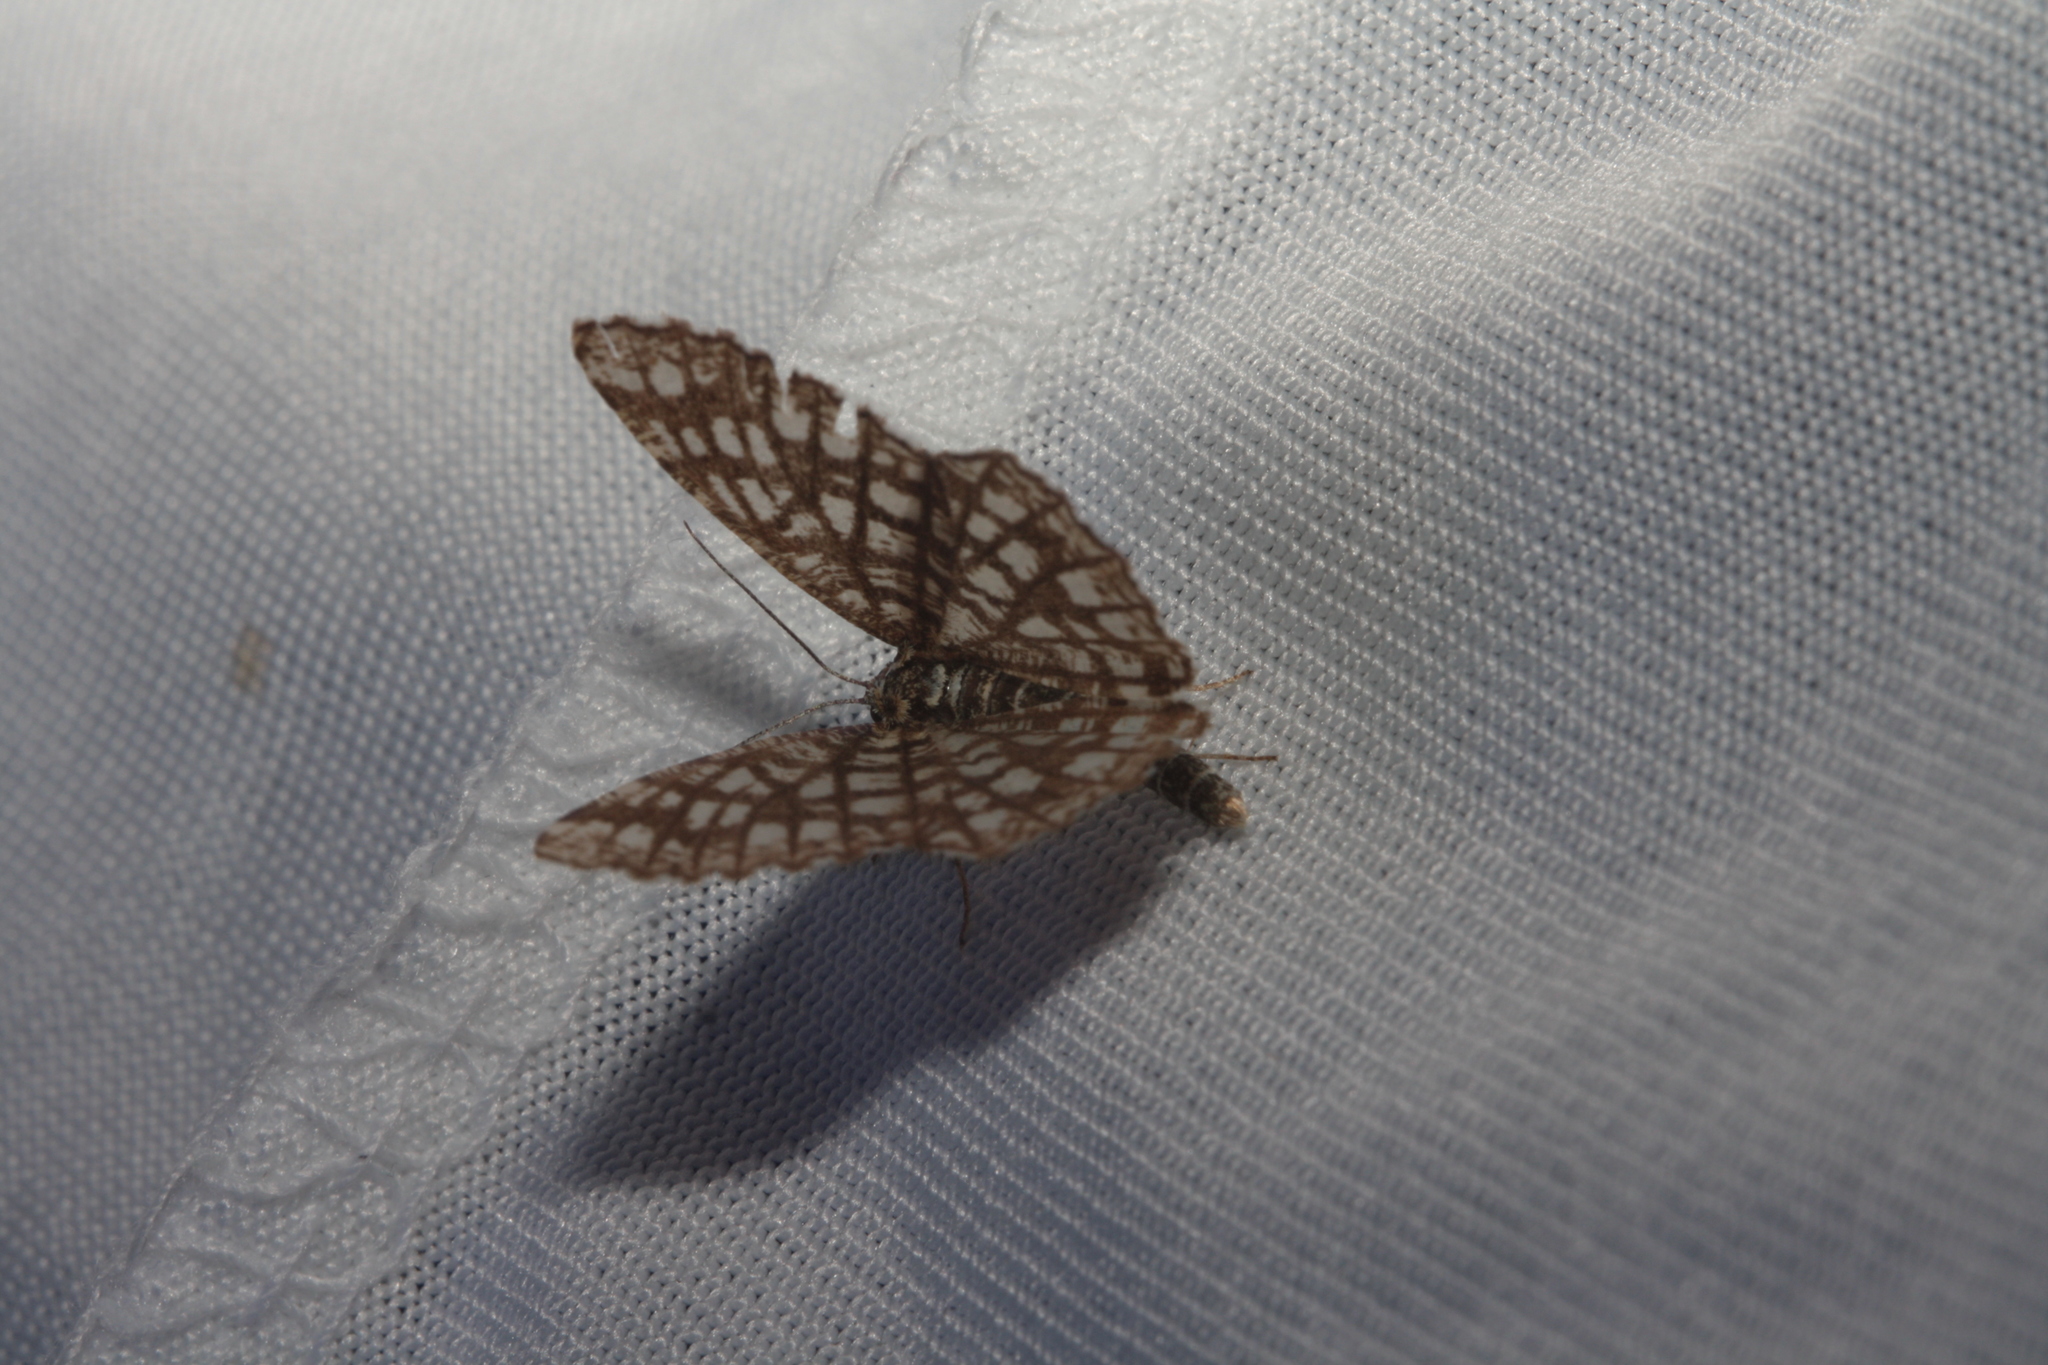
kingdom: Animalia
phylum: Arthropoda
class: Insecta
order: Lepidoptera
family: Geometridae
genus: Chiasmia
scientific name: Chiasmia clathrata
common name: Latticed heath
